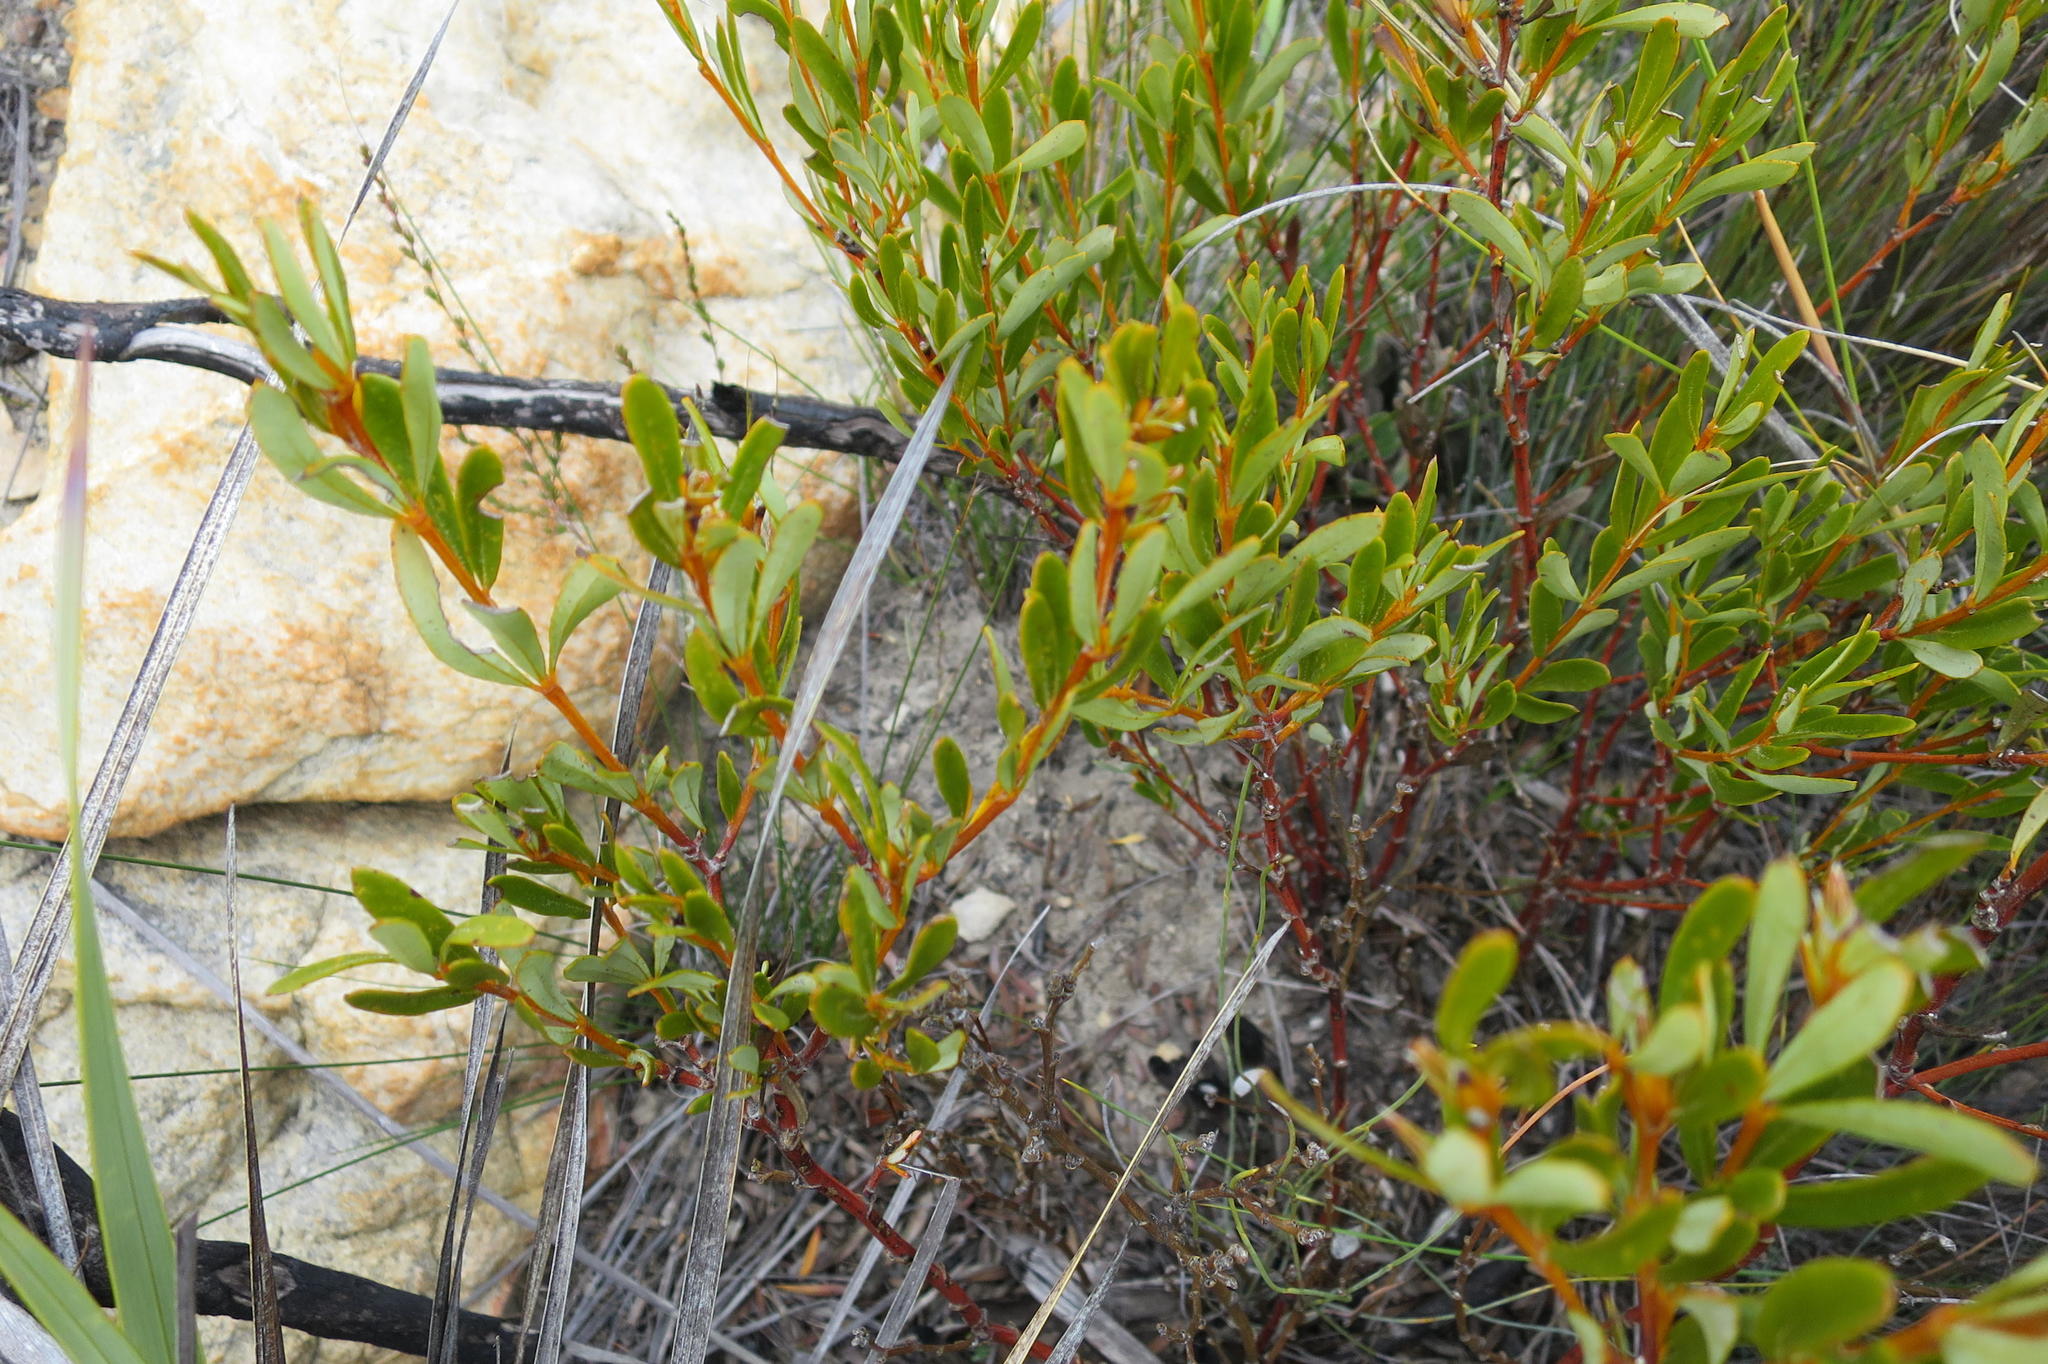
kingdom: Plantae
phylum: Tracheophyta
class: Magnoliopsida
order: Fabales
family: Fabaceae
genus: Cyclopia
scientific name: Cyclopia intermedia
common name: Mountain tea
